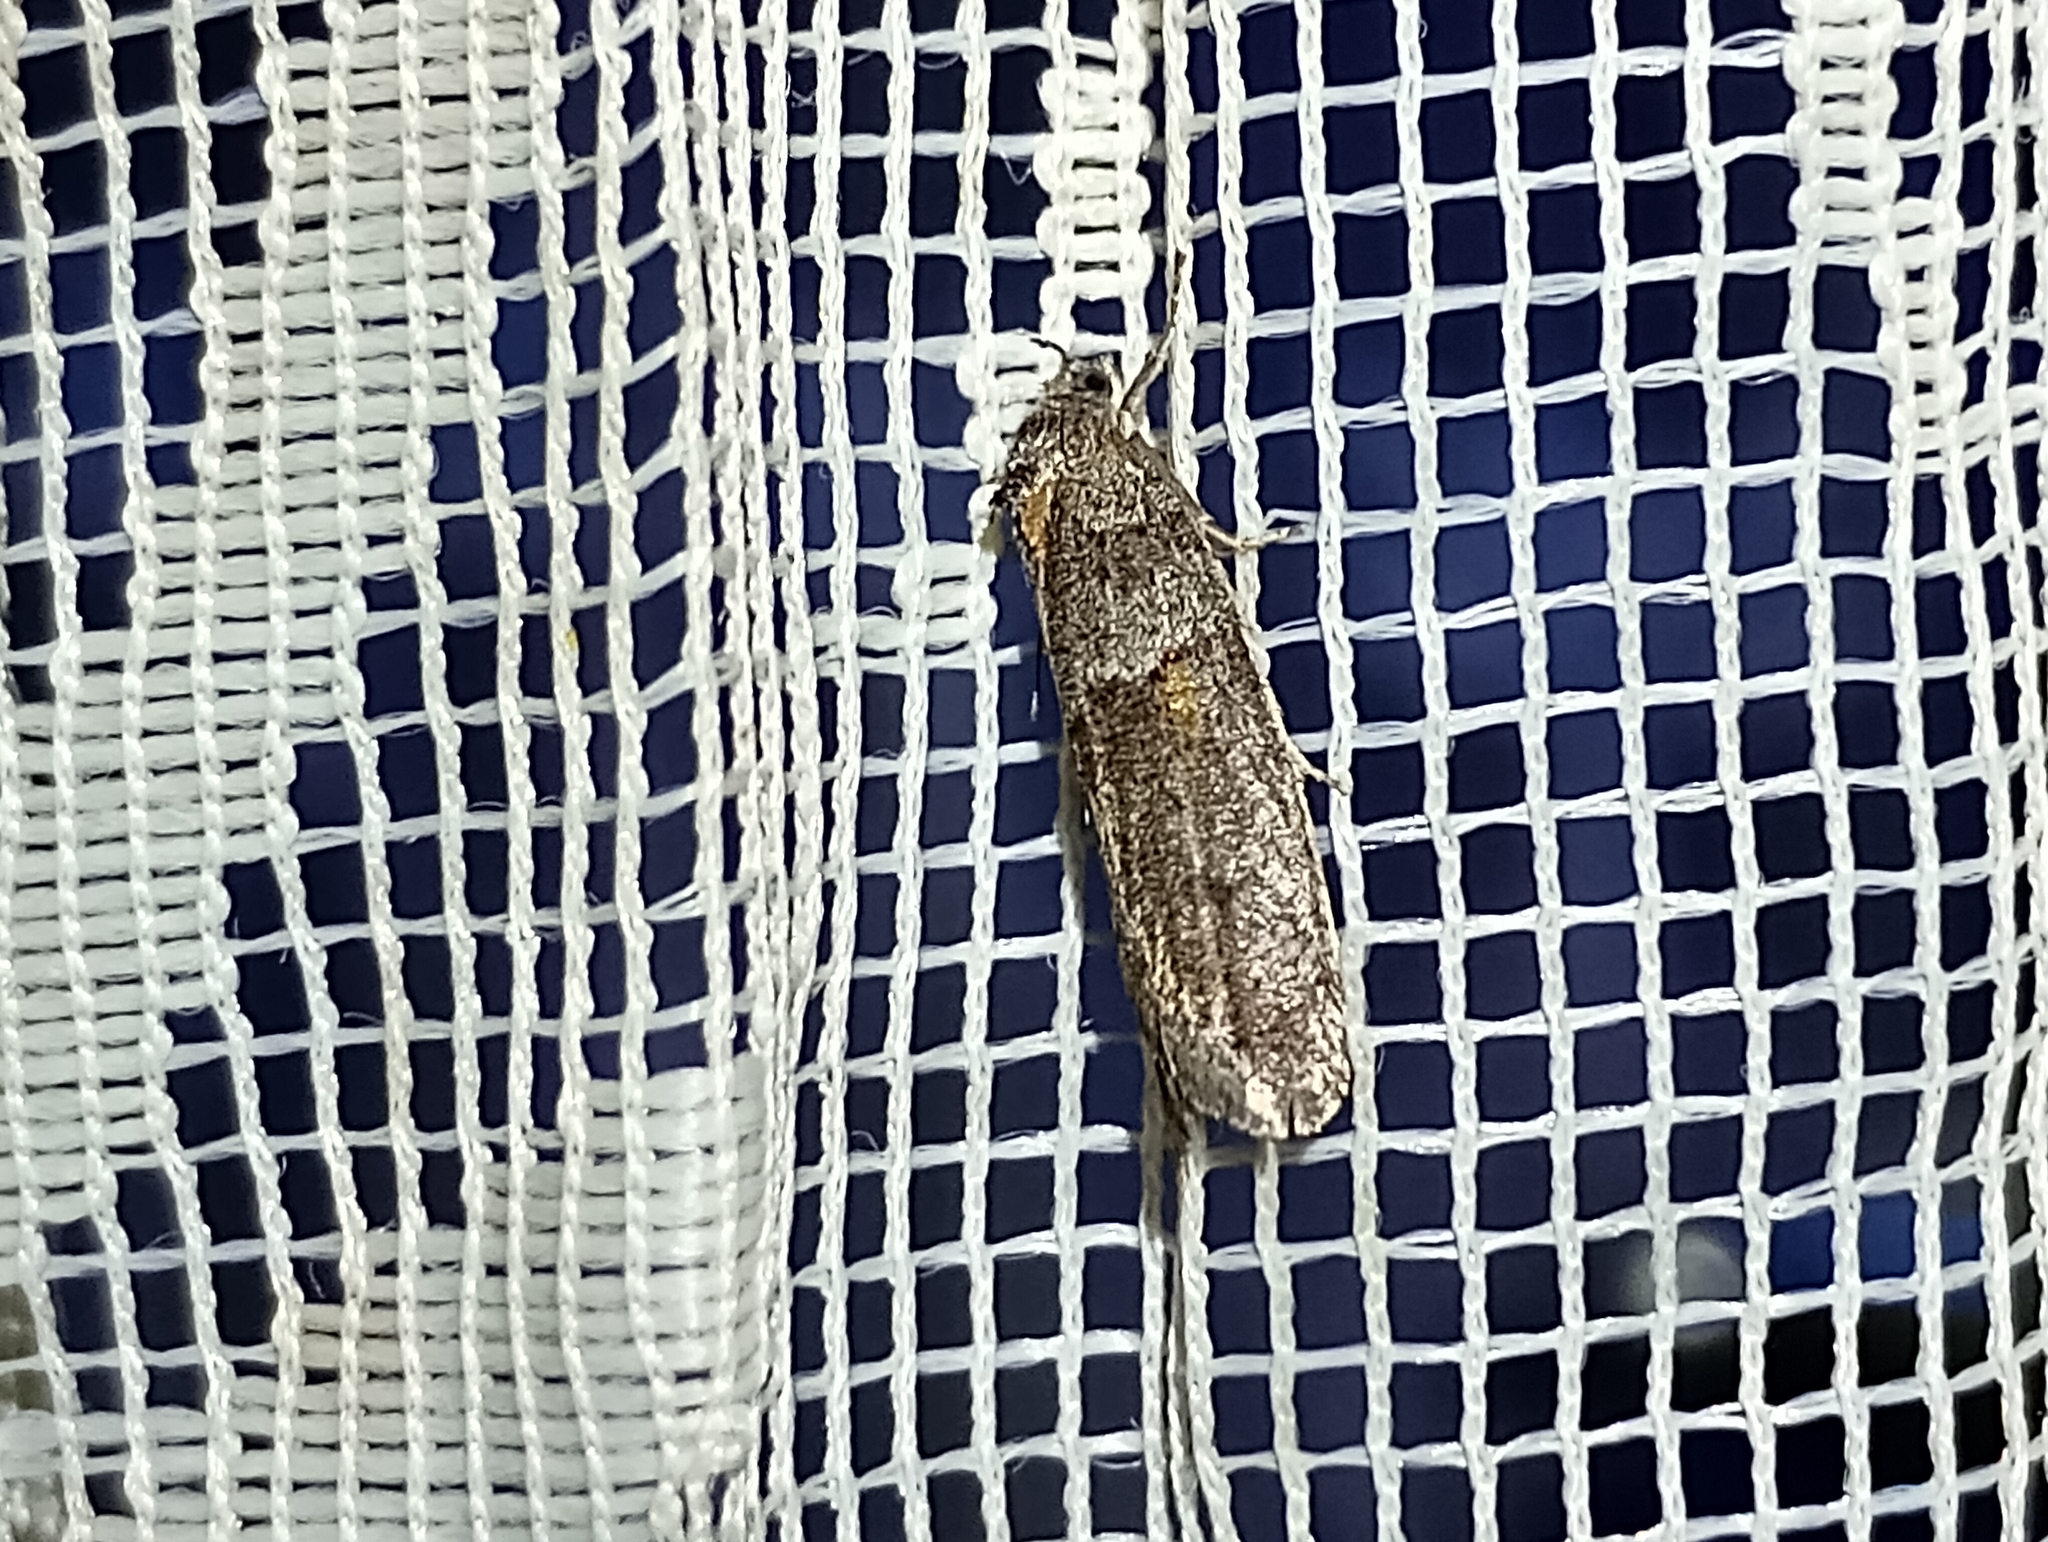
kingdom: Animalia
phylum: Arthropoda
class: Insecta
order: Lepidoptera
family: Tortricidae
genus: Tortricodes
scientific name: Tortricodes alternella
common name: Winter shade
